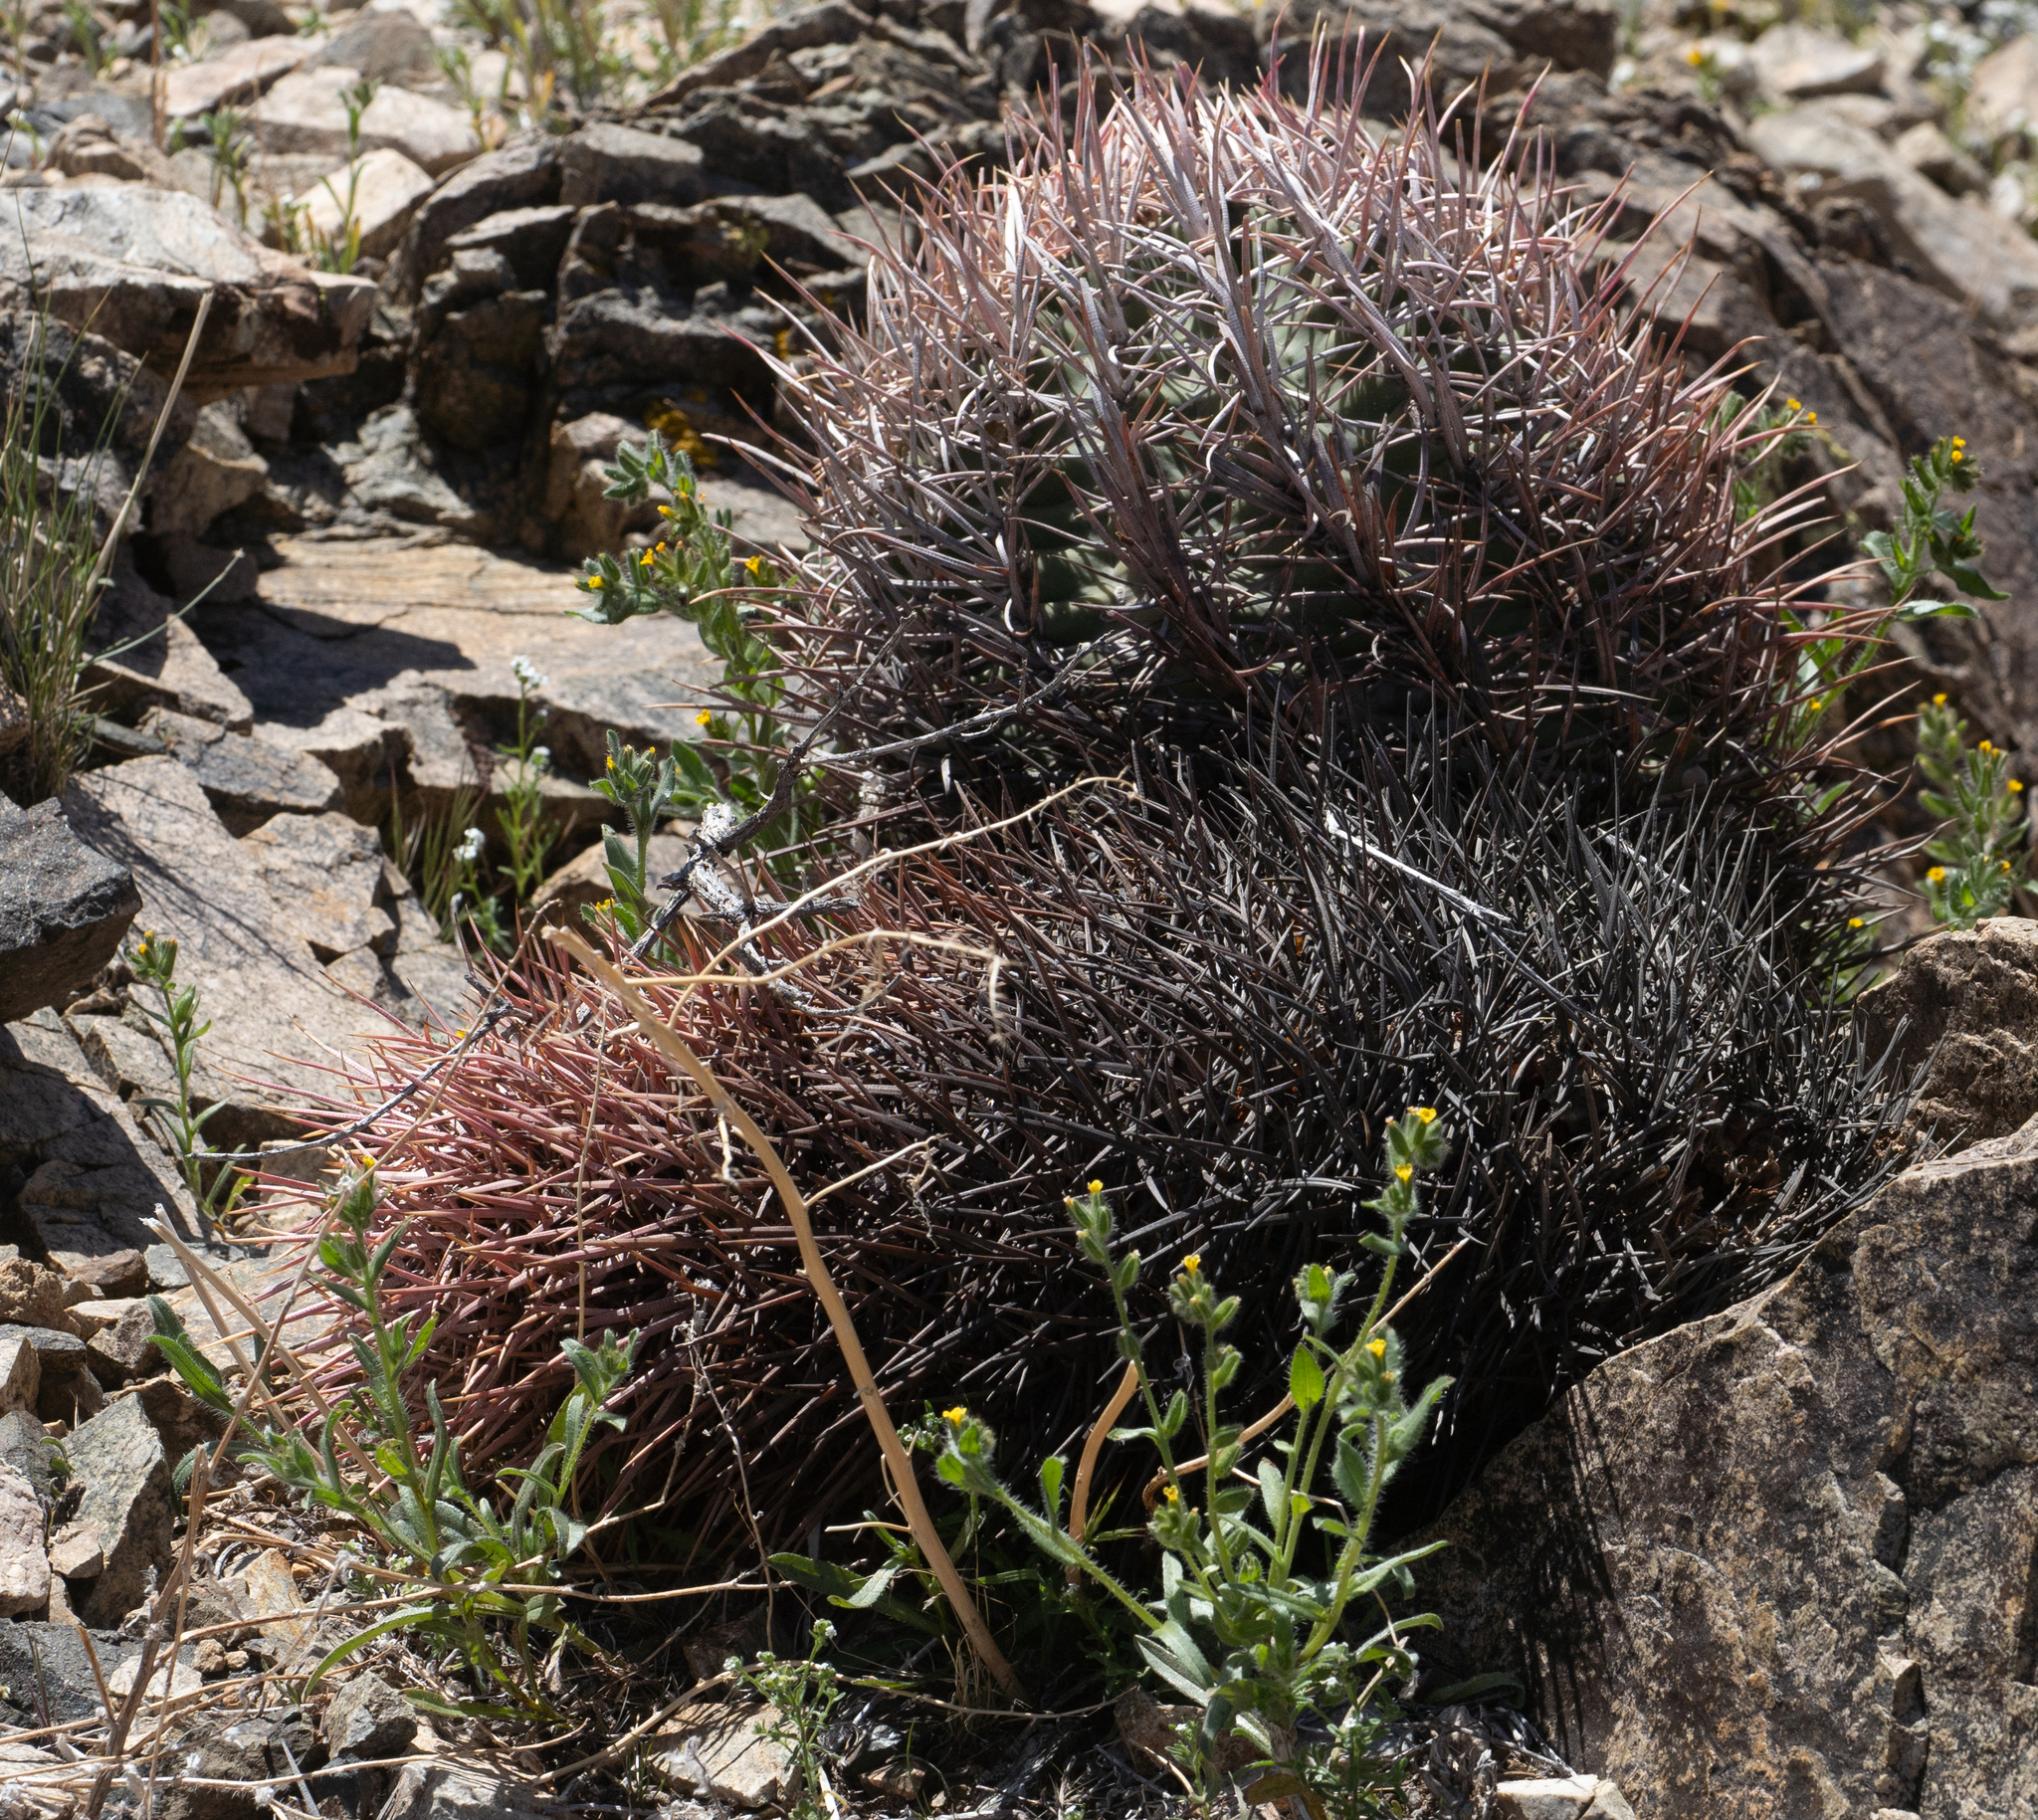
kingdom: Plantae
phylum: Tracheophyta
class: Magnoliopsida
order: Caryophyllales
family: Cactaceae
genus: Echinocactus
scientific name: Echinocactus polycephalus
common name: Cottontop cactus
